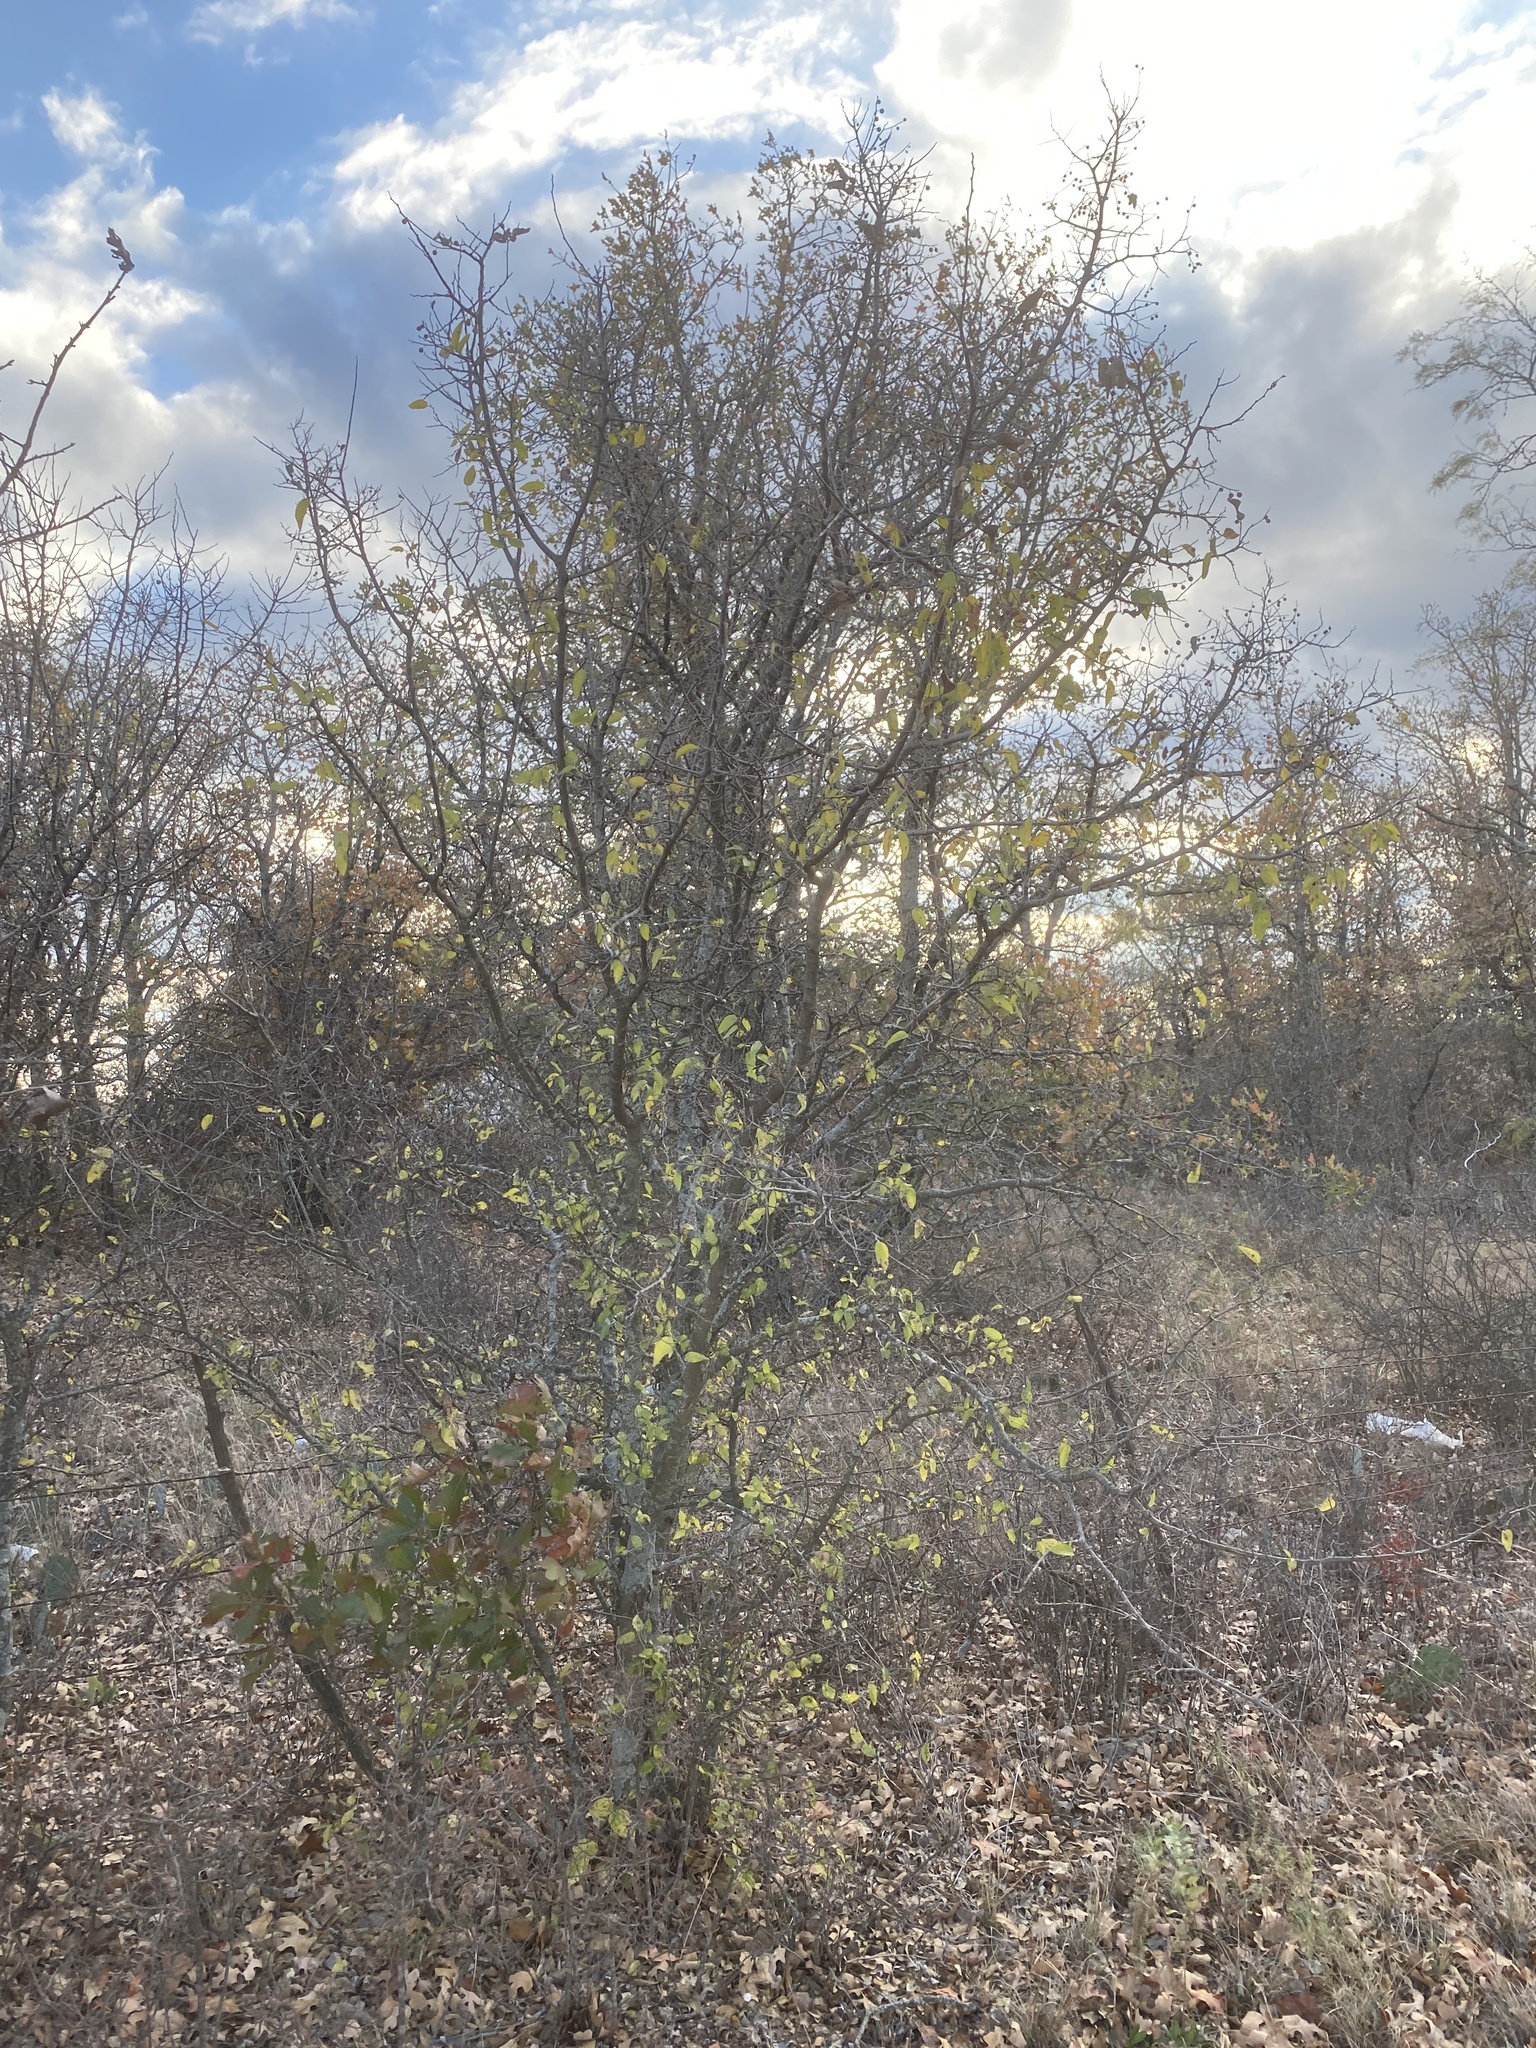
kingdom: Plantae
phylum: Tracheophyta
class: Magnoliopsida
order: Rosales
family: Cannabaceae
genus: Celtis
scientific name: Celtis reticulata
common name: Netleaf hackberry
